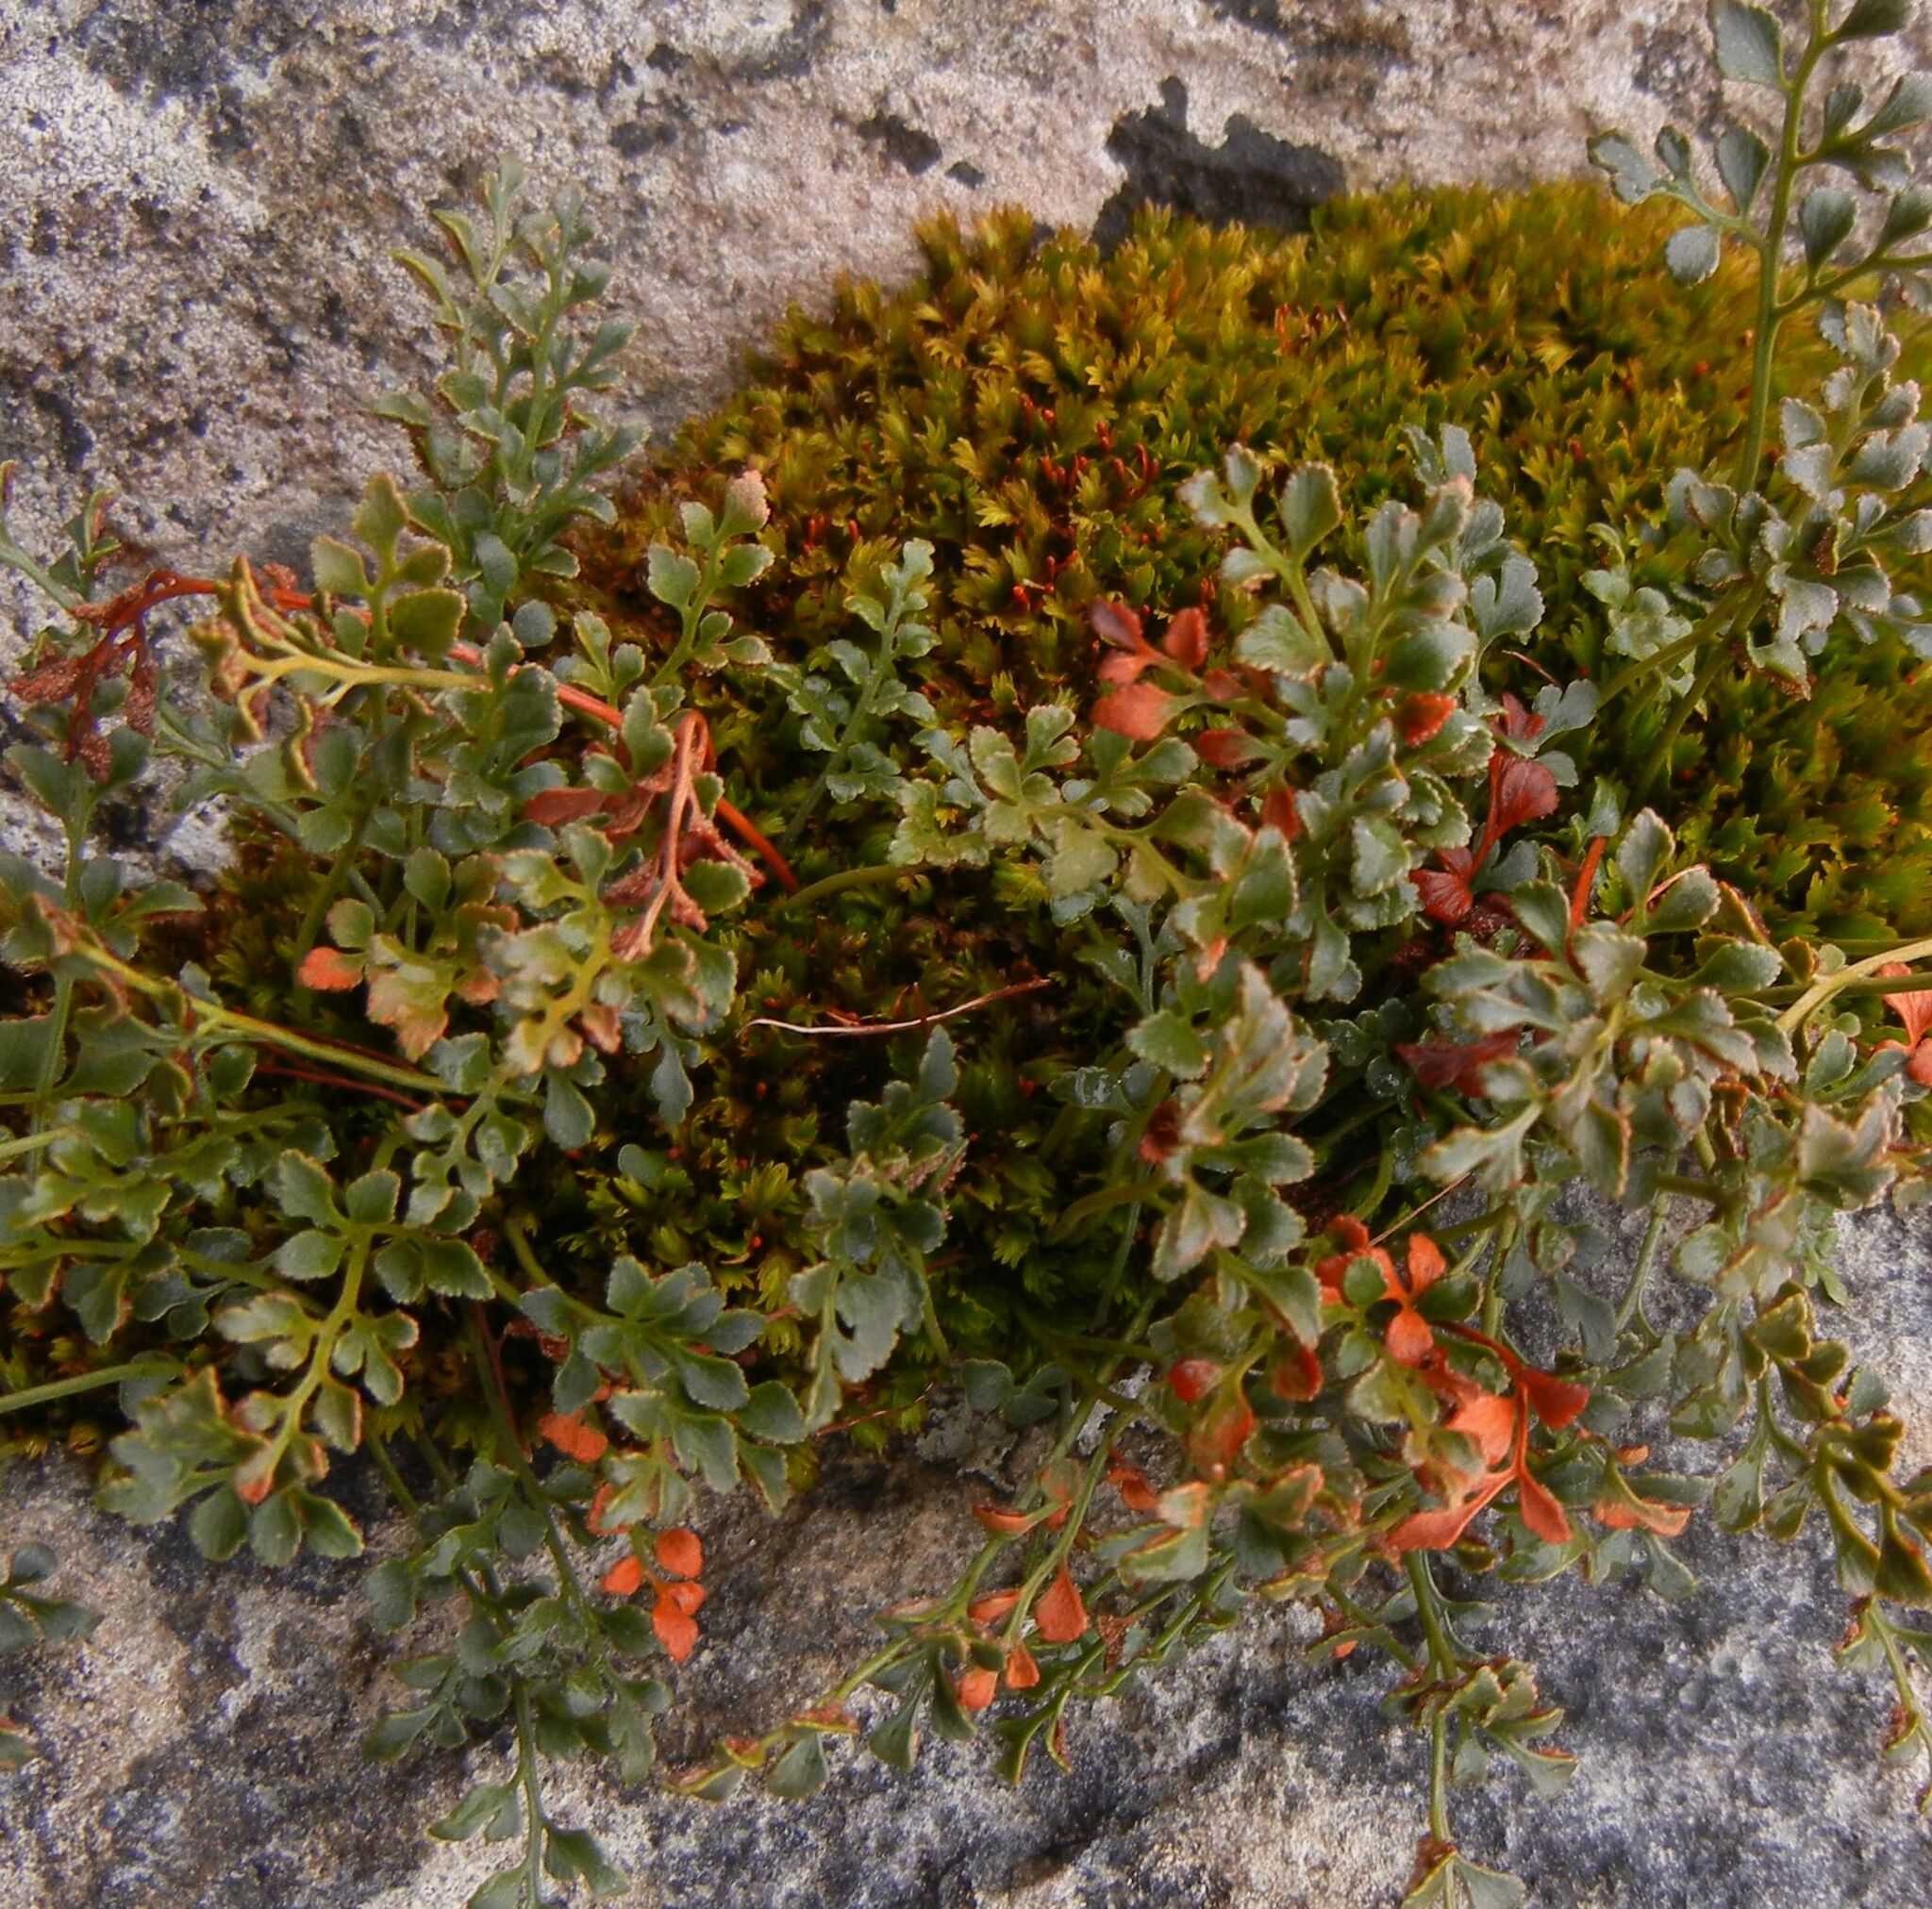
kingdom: Plantae
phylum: Tracheophyta
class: Polypodiopsida
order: Polypodiales
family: Aspleniaceae
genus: Asplenium
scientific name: Asplenium ruta-muraria
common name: Wall-rue
